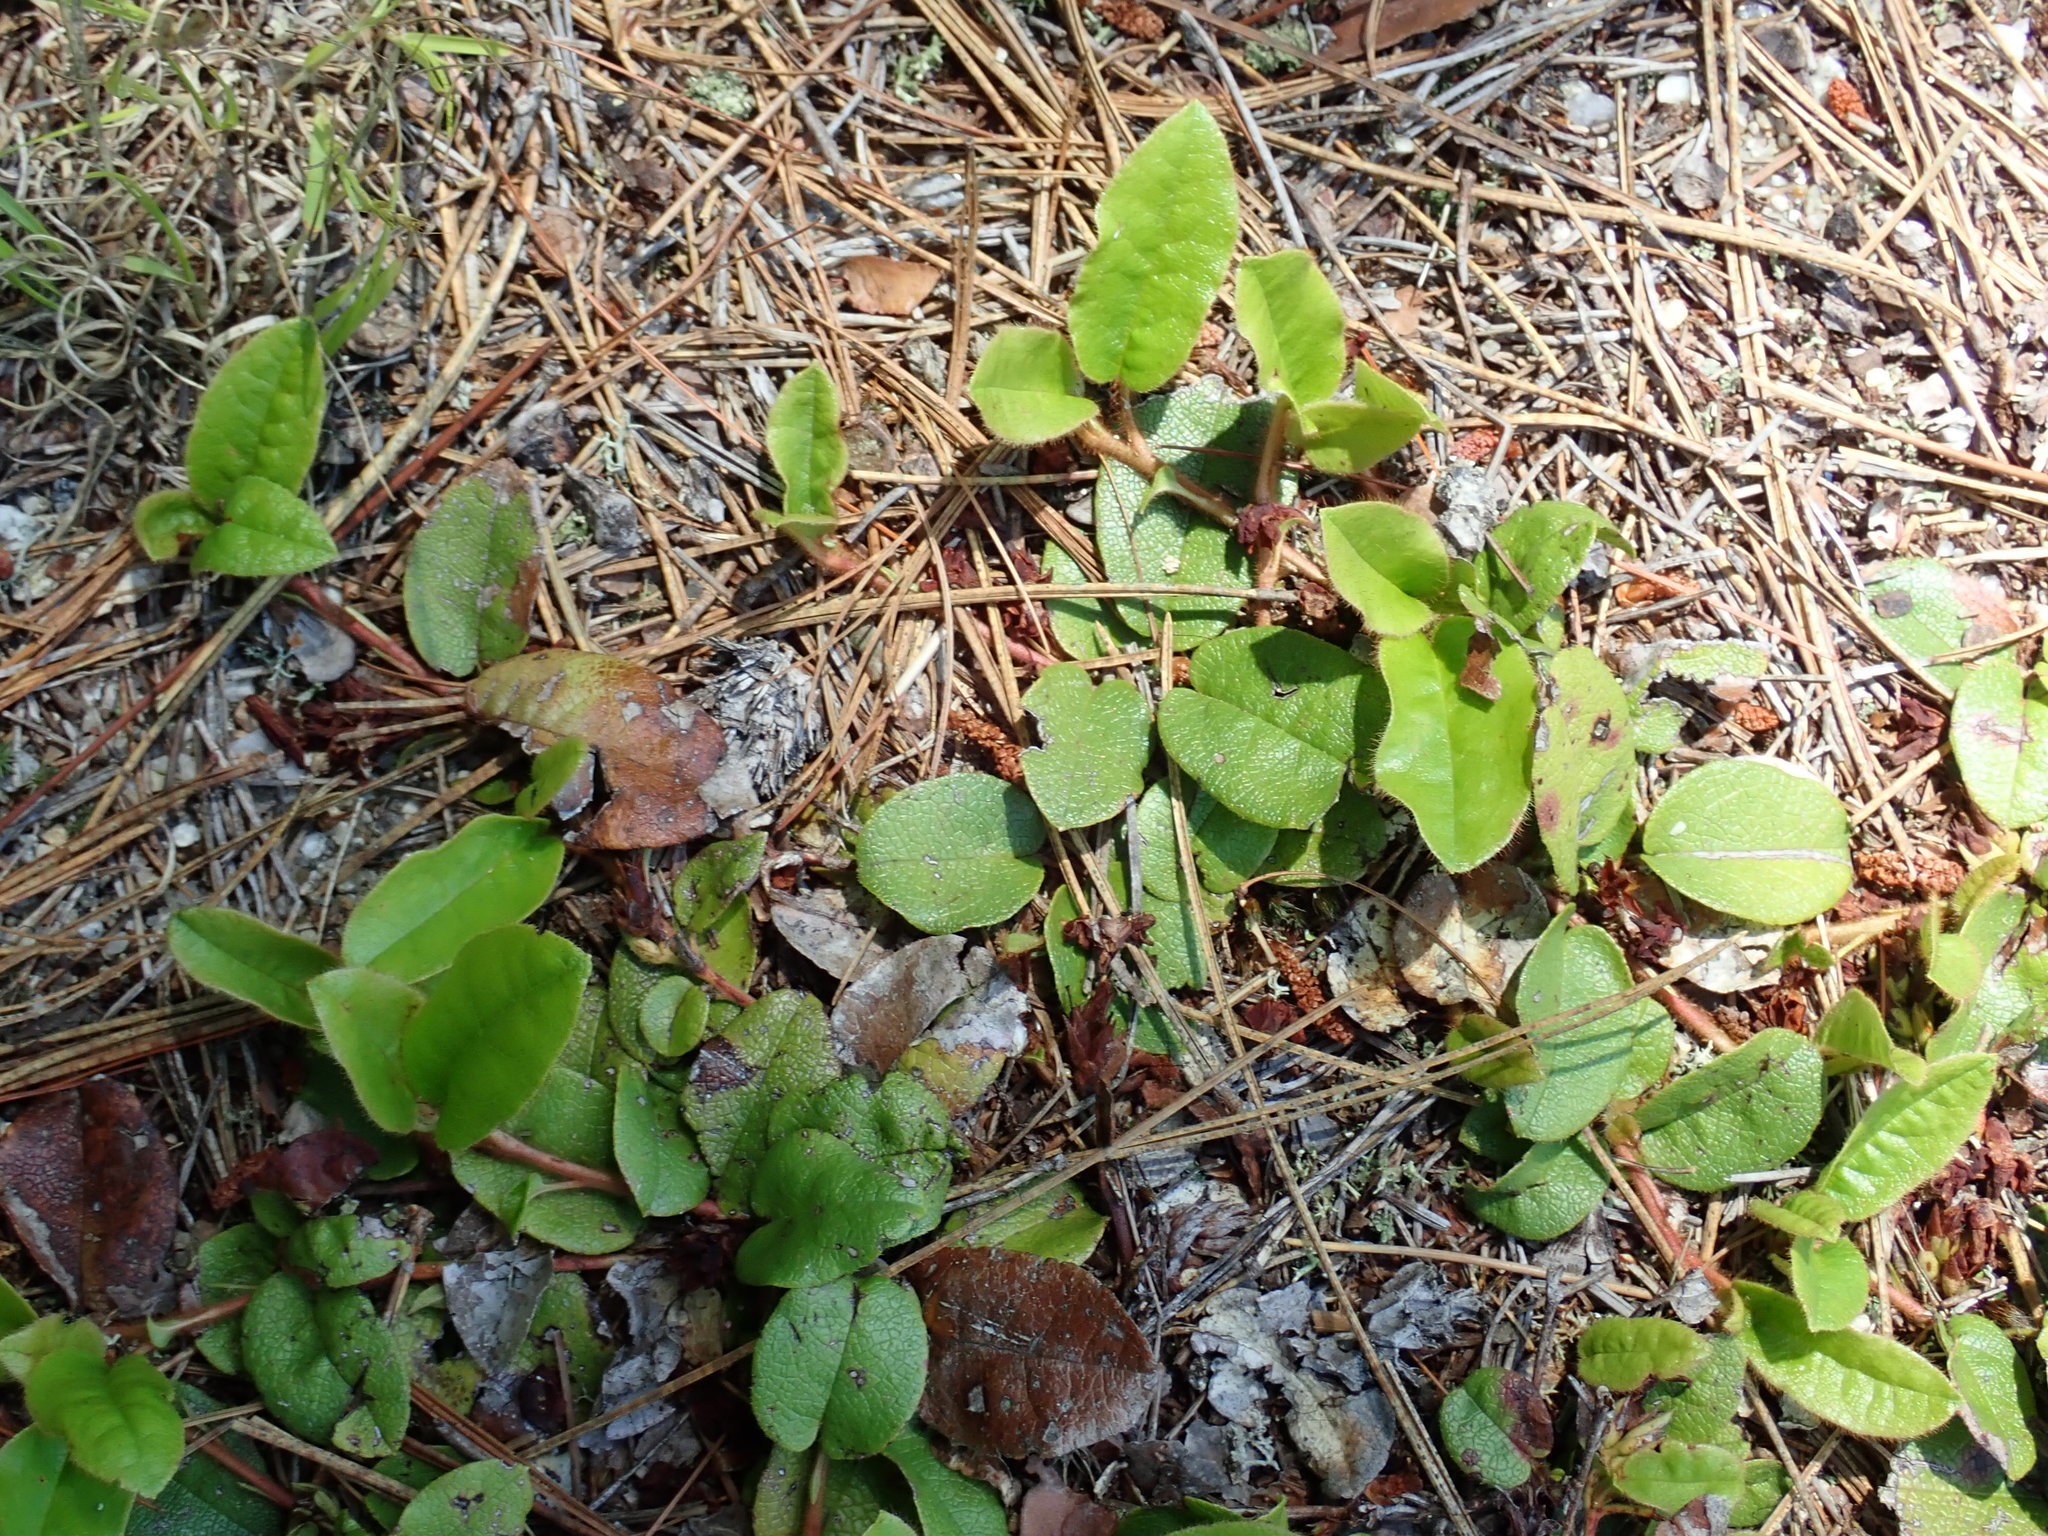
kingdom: Plantae
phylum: Tracheophyta
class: Magnoliopsida
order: Ericales
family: Ericaceae
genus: Epigaea
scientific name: Epigaea repens
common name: Gravelroot
